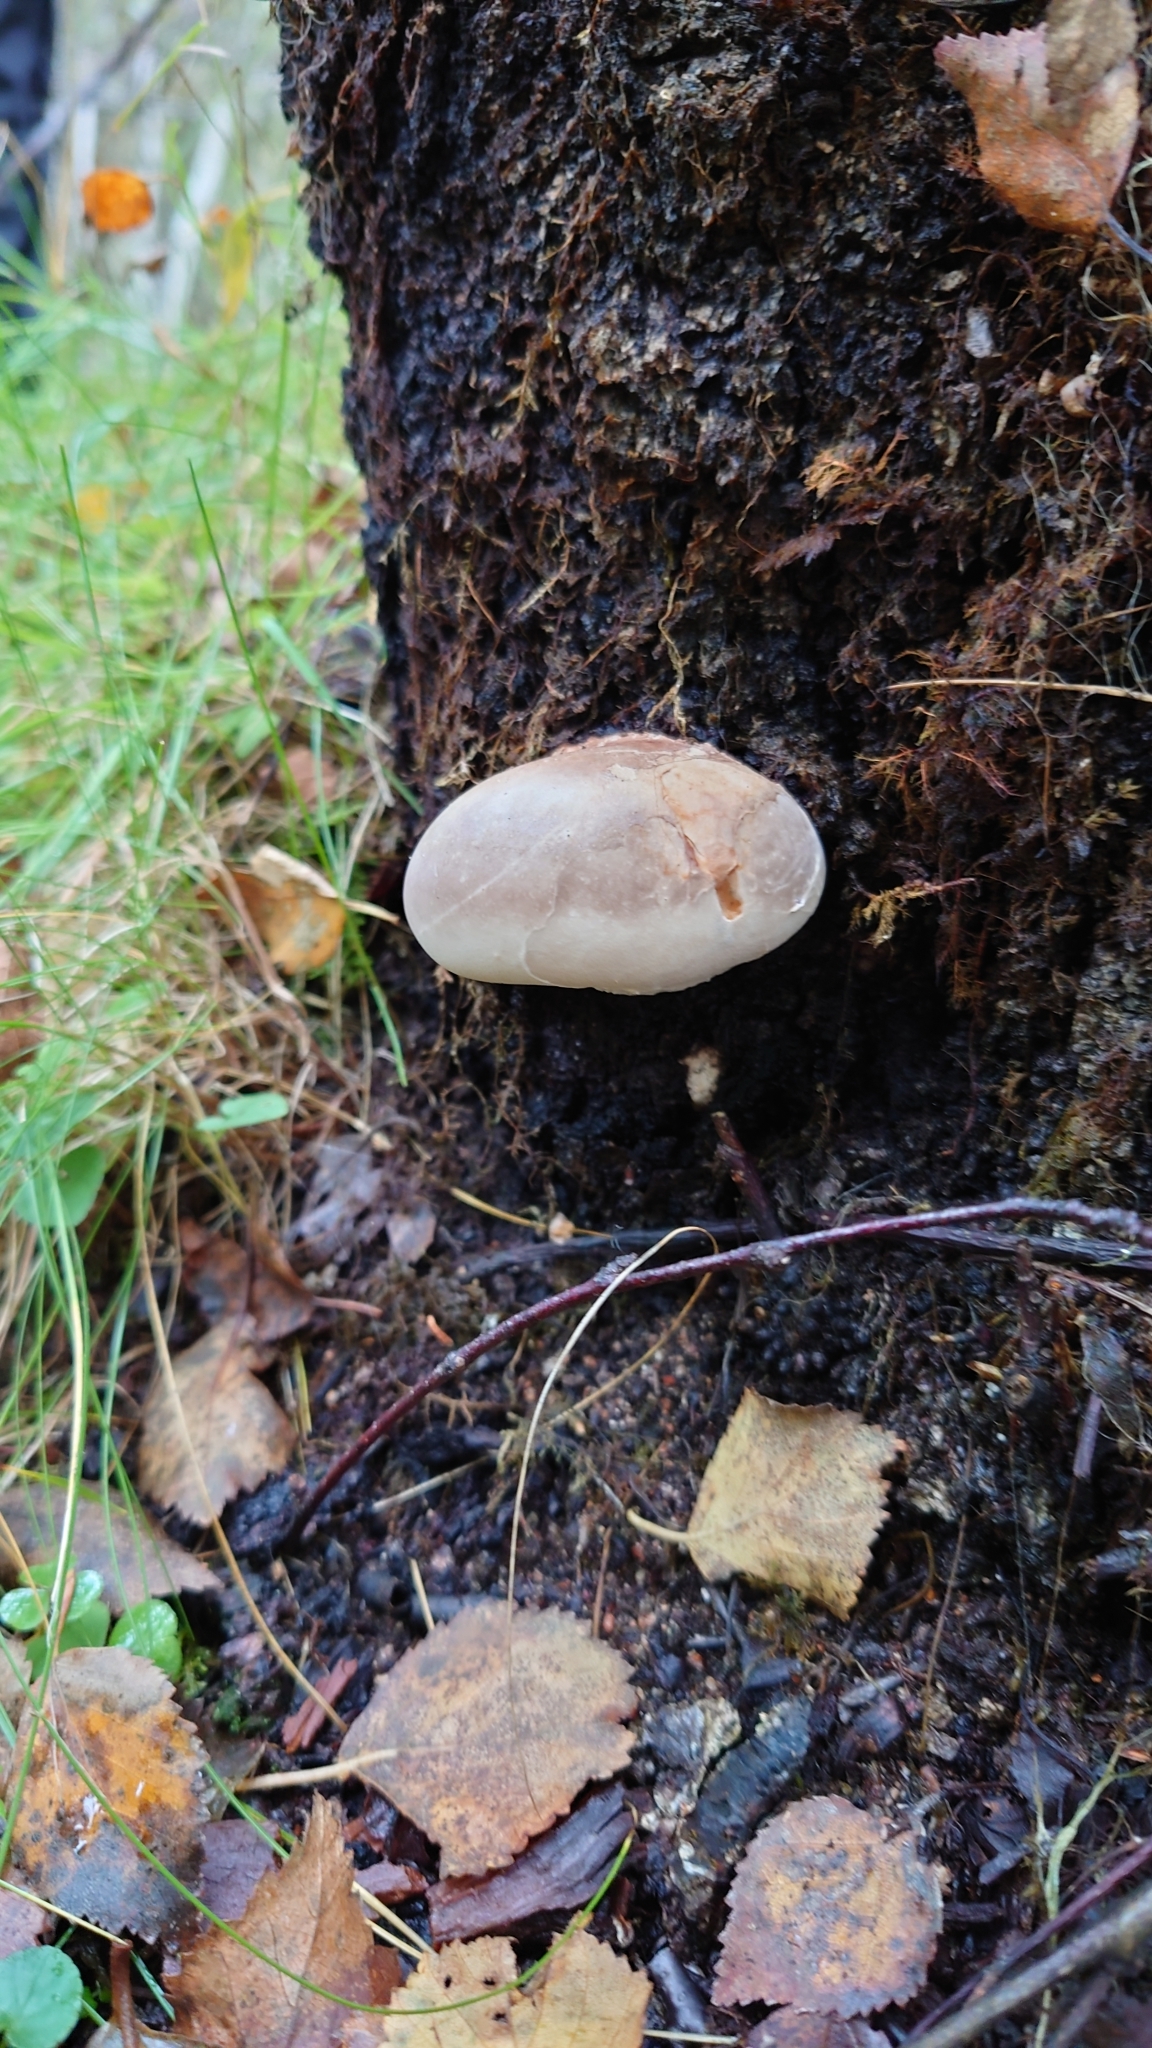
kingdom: Fungi
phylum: Basidiomycota
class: Agaricomycetes
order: Polyporales
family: Fomitopsidaceae
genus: Fomitopsis
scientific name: Fomitopsis betulina
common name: Birch polypore
